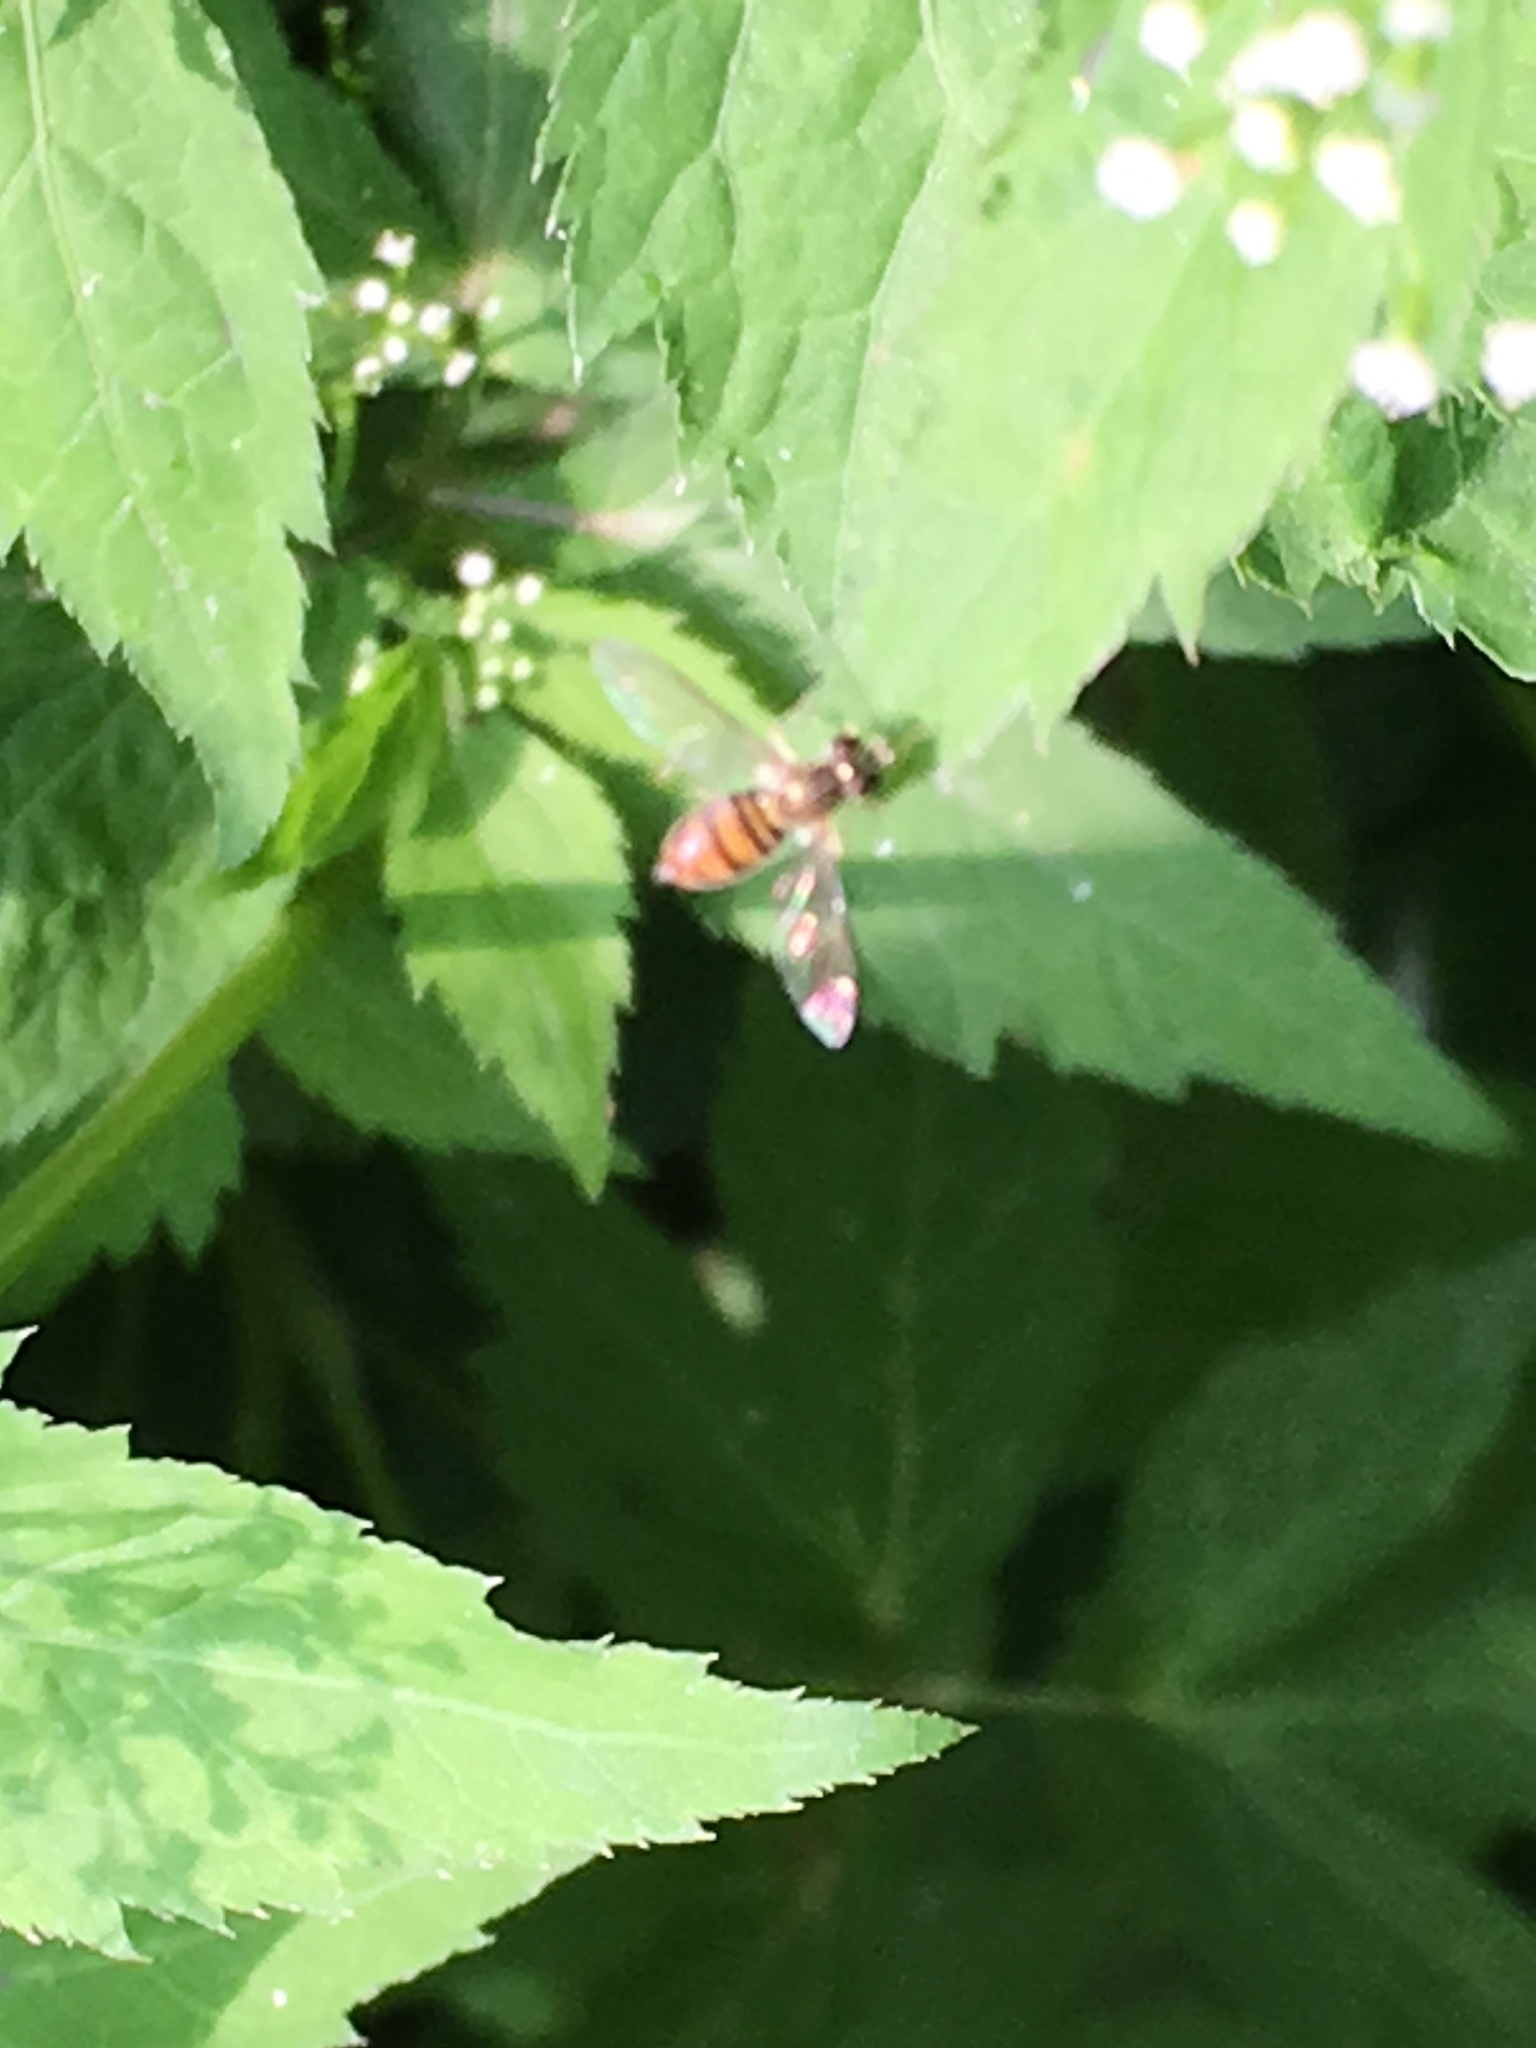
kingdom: Animalia
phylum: Arthropoda
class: Insecta
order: Diptera
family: Syrphidae
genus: Toxomerus
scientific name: Toxomerus marginatus
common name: Syrphid fly
